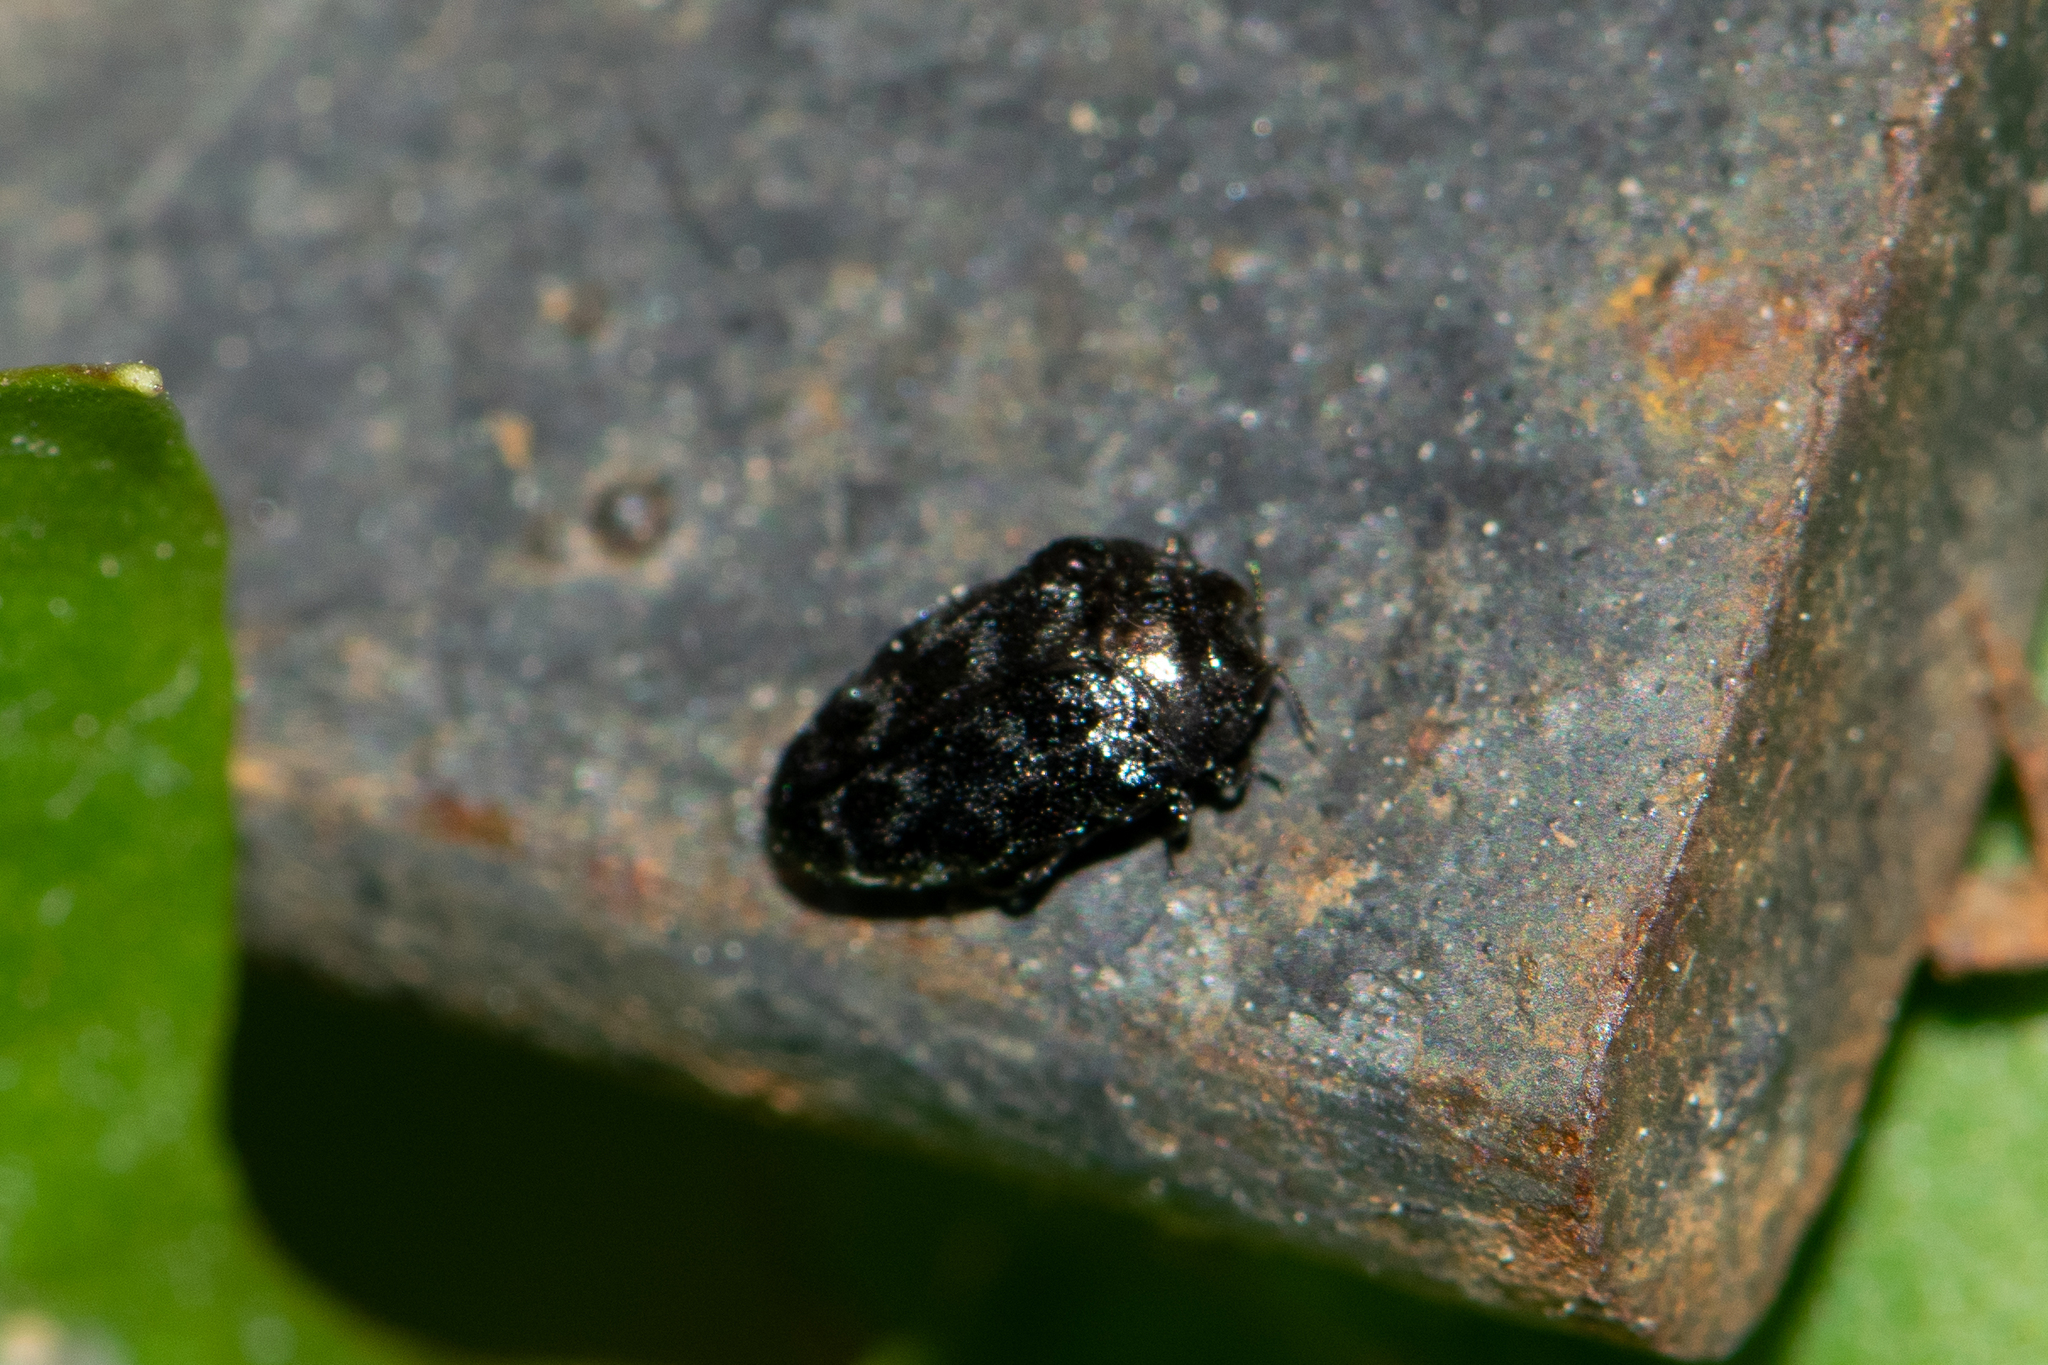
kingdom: Animalia
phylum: Arthropoda
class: Insecta
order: Coleoptera
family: Buprestidae
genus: Trachys
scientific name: Trachys minutus
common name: Metallic wood-boring beetle
